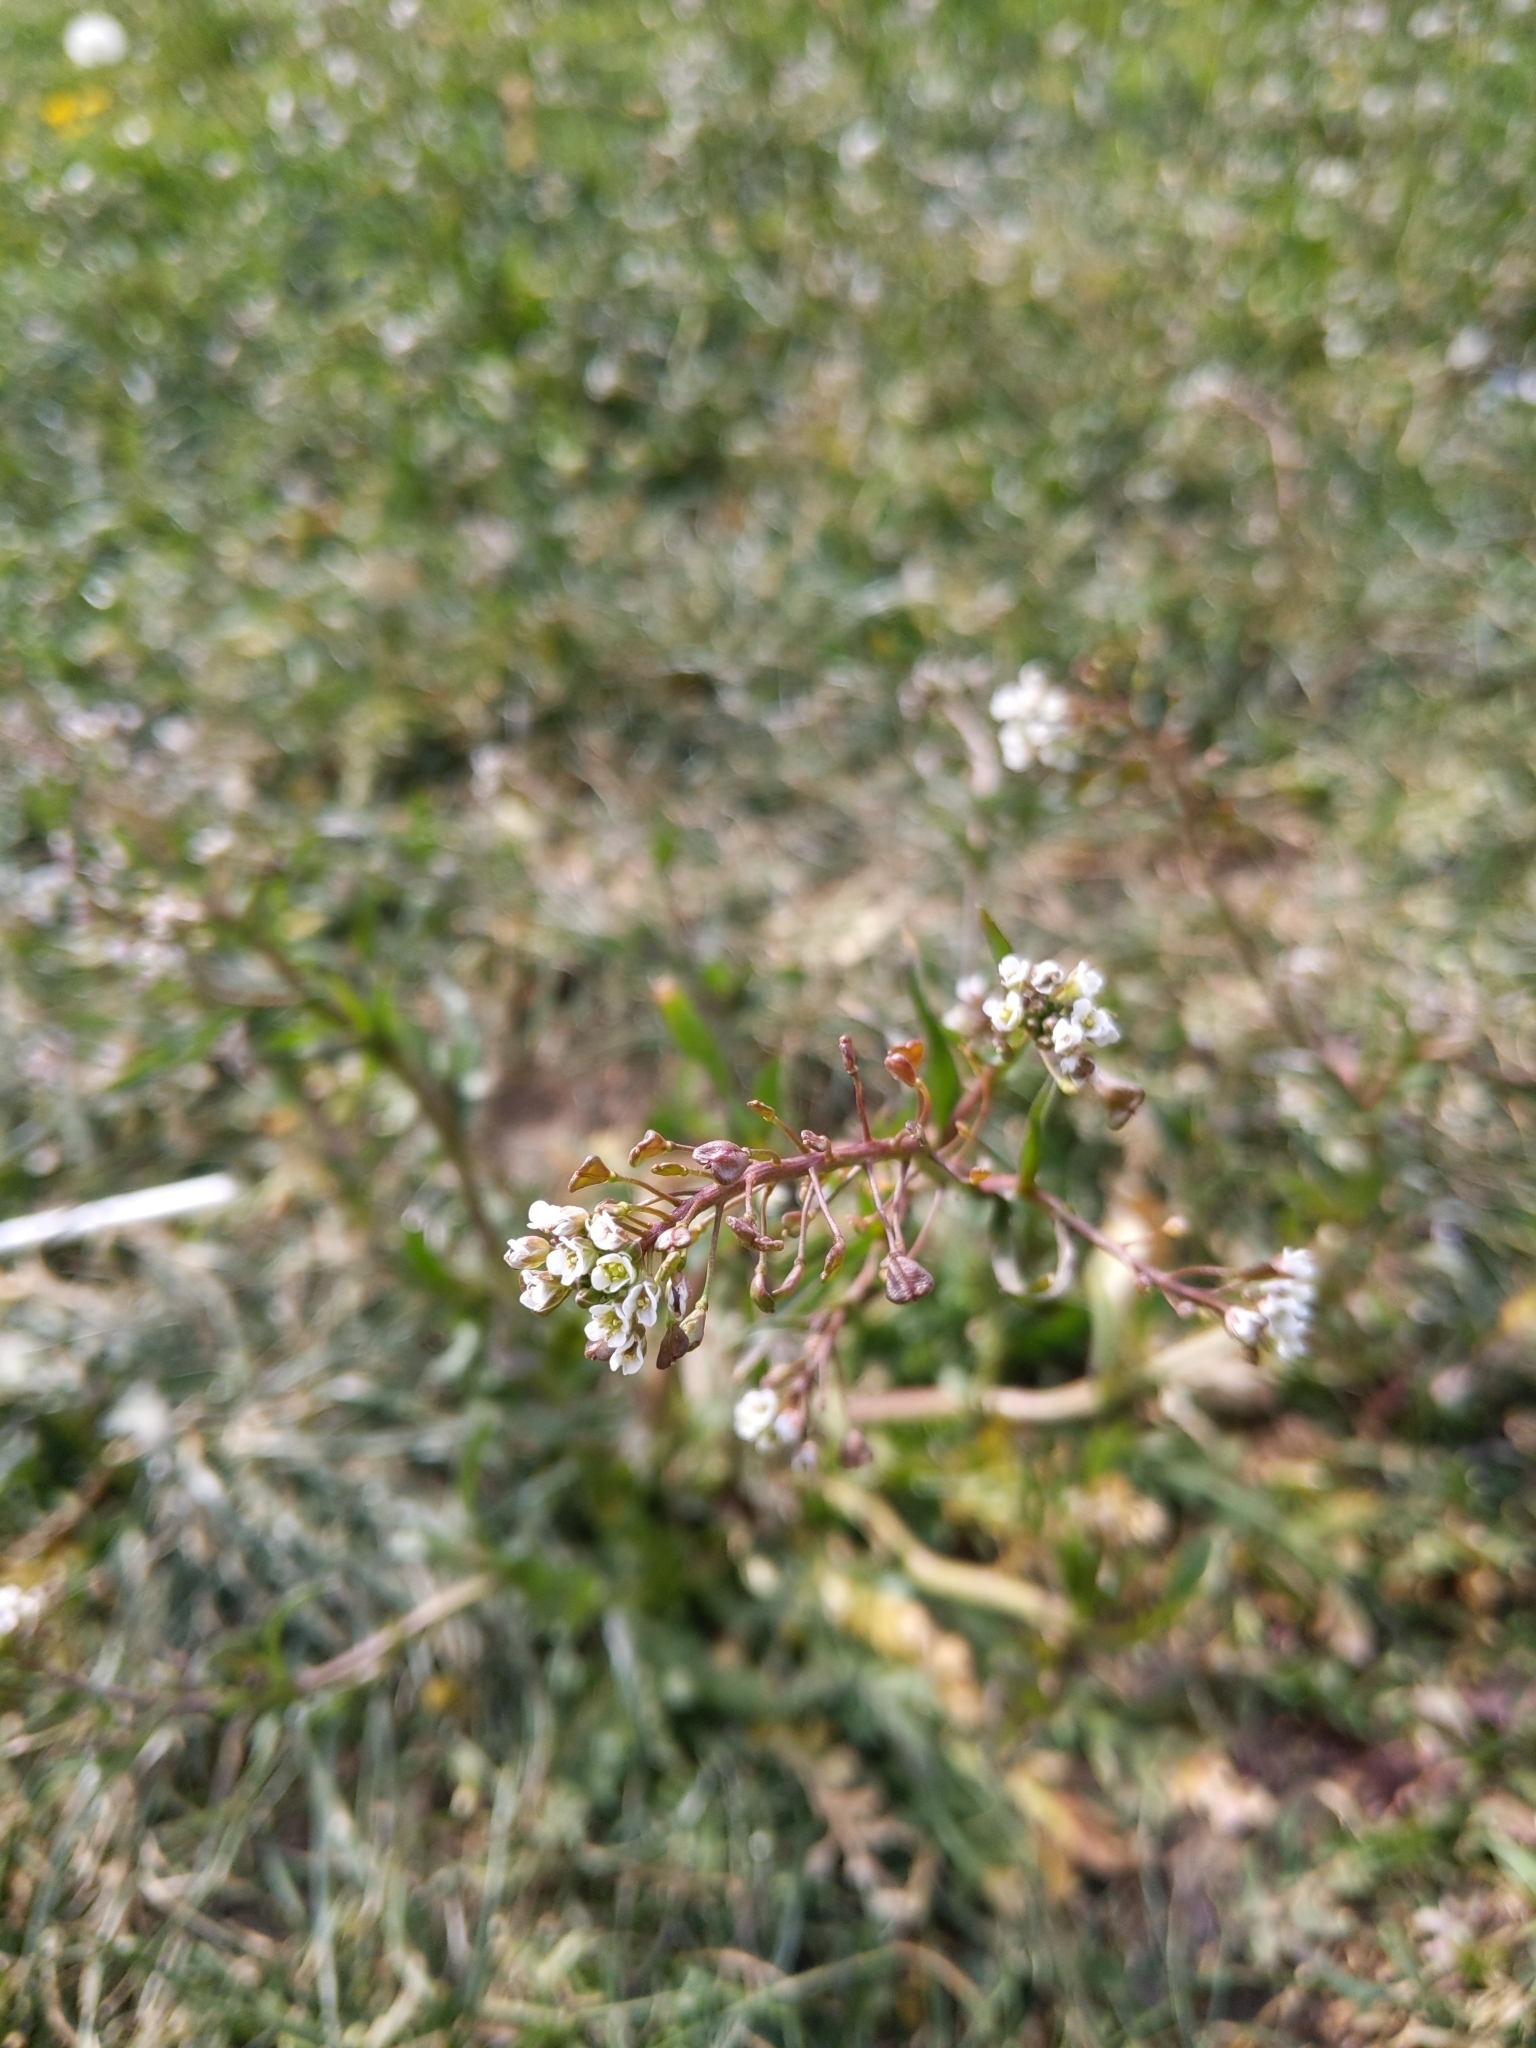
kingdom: Plantae
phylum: Tracheophyta
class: Magnoliopsida
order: Brassicales
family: Brassicaceae
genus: Capsella
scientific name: Capsella bursa-pastoris
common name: Shepherd's purse
